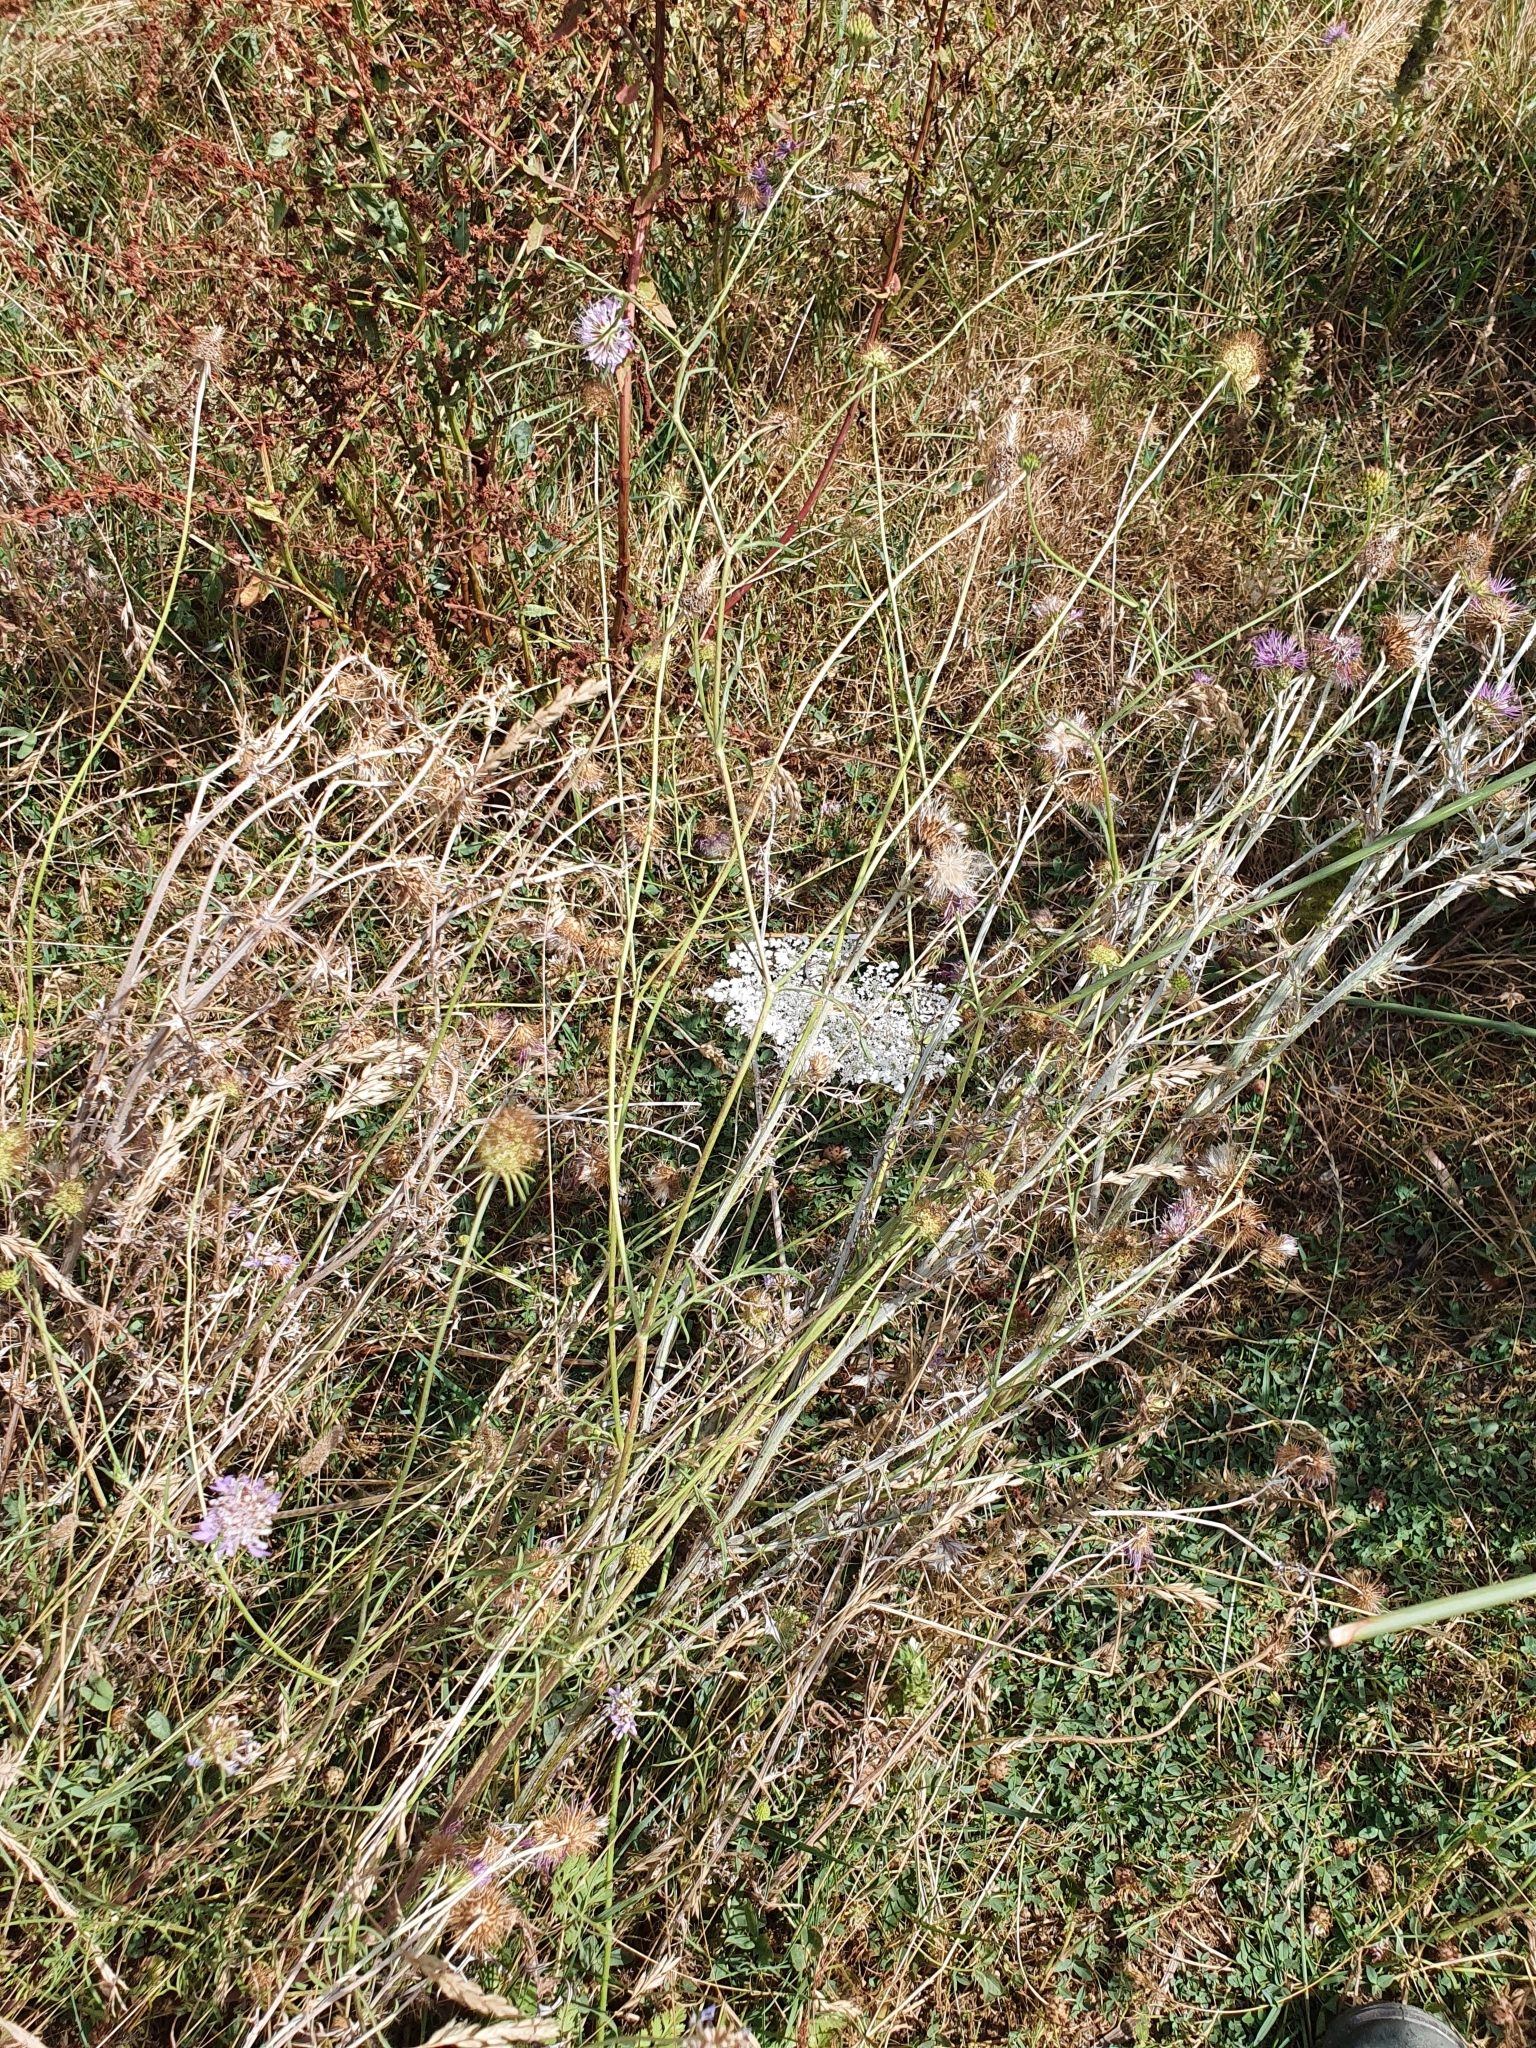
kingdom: Plantae
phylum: Tracheophyta
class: Magnoliopsida
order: Dipsacales
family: Caprifoliaceae
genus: Sixalix
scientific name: Sixalix maritima
